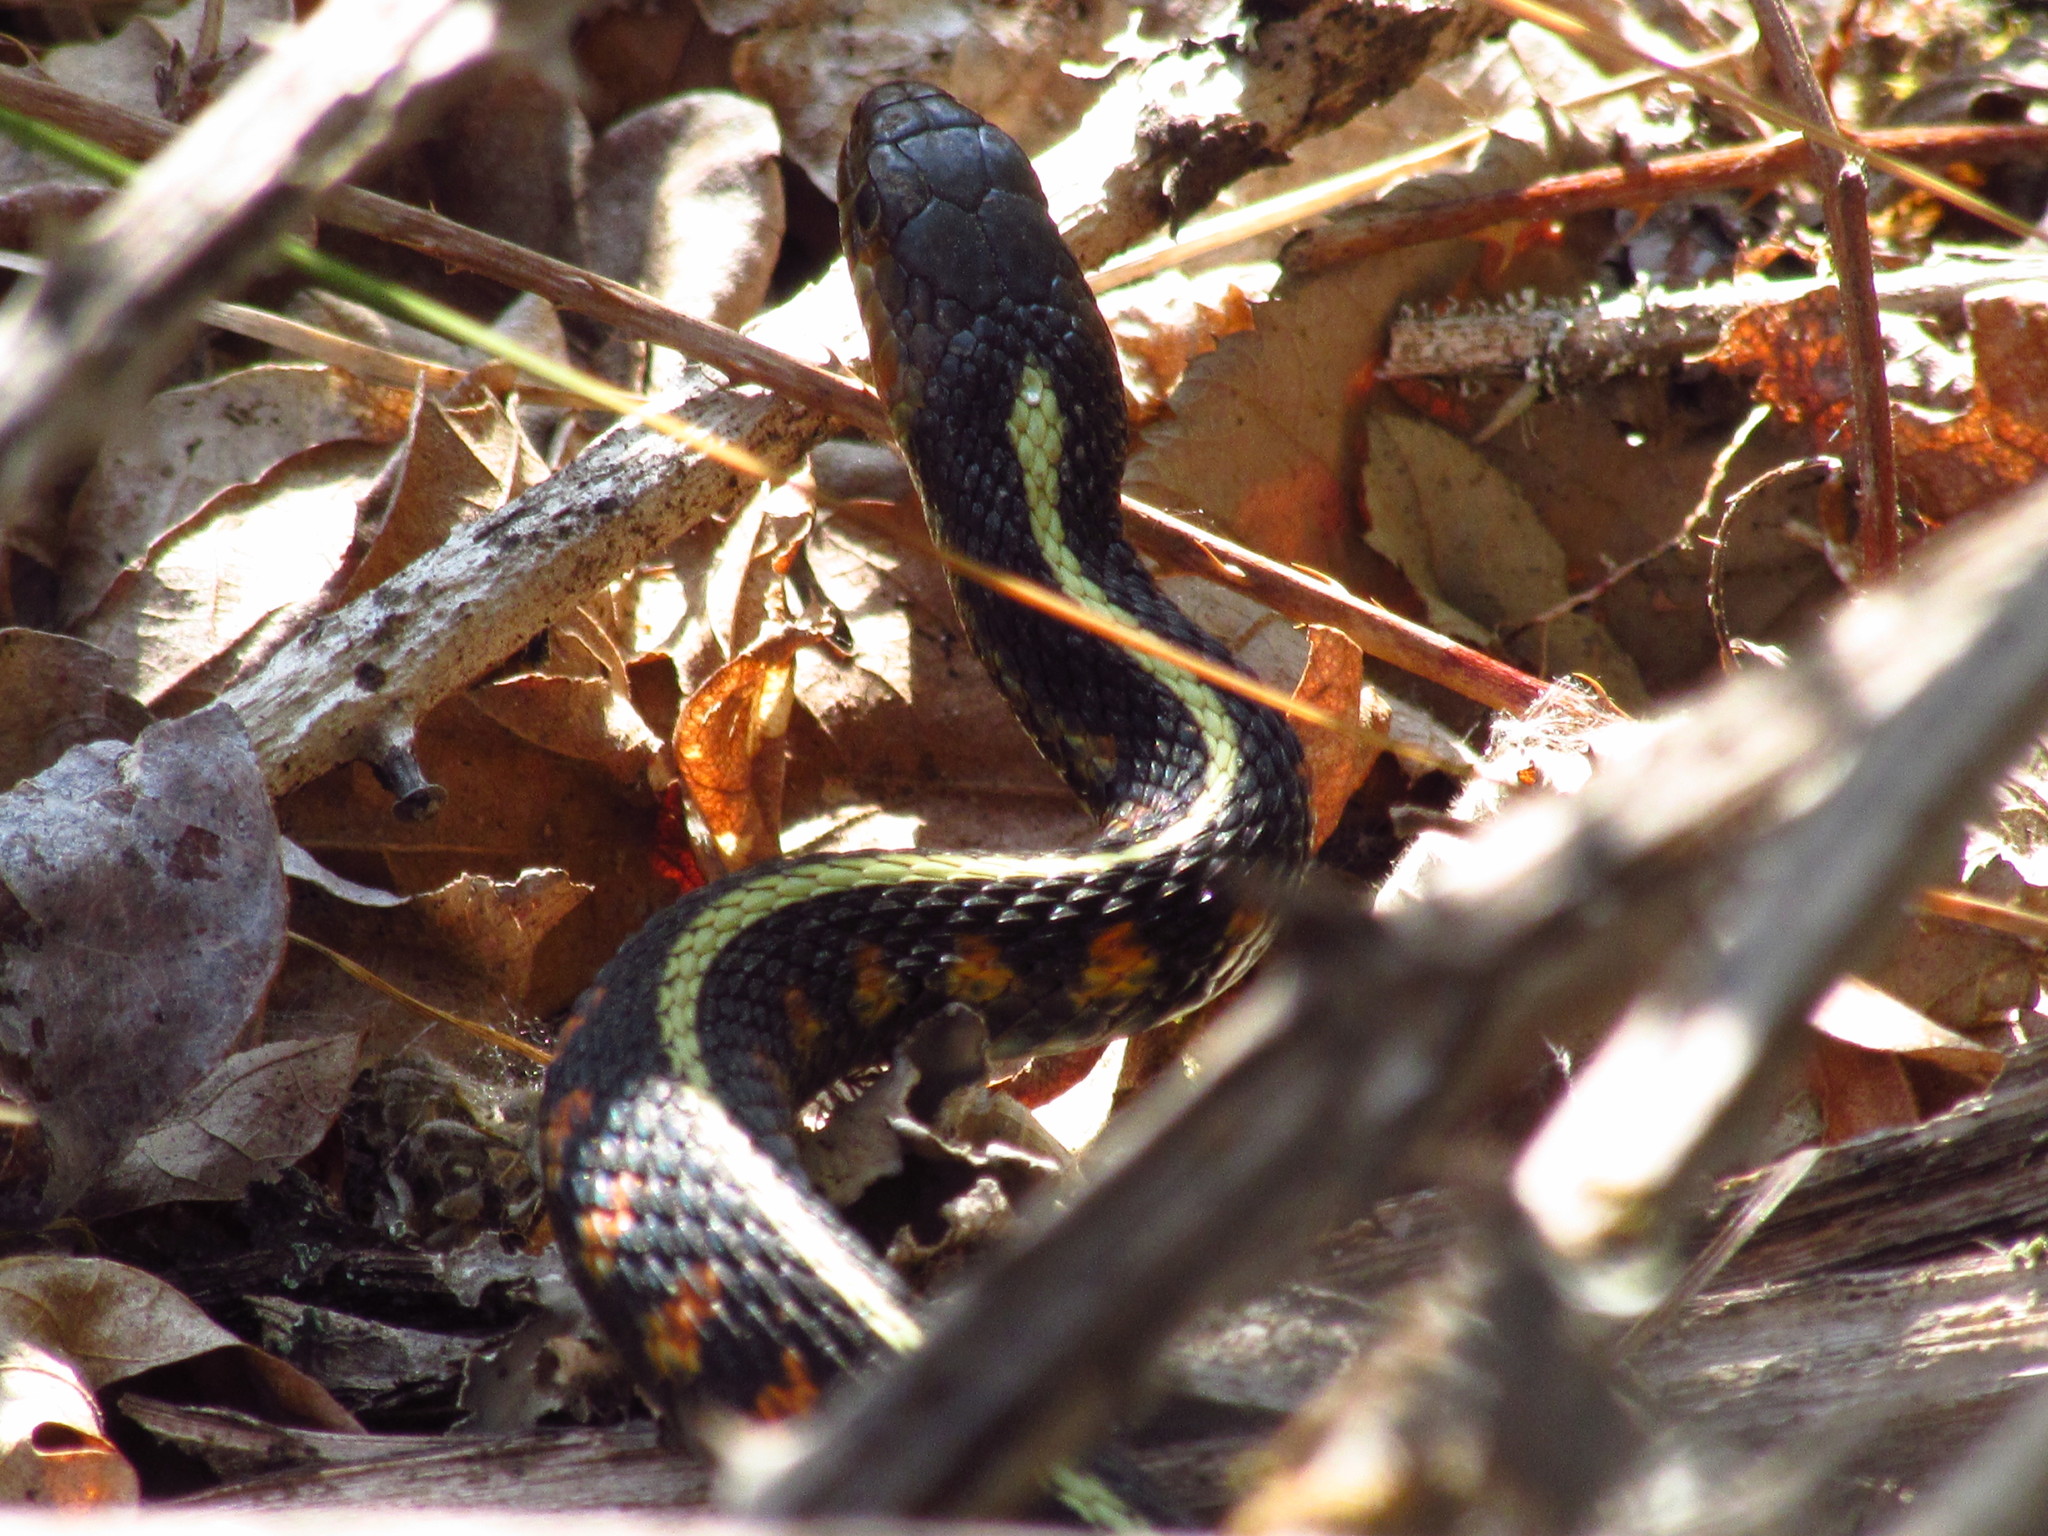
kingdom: Animalia
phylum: Chordata
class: Squamata
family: Colubridae
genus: Thamnophis
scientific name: Thamnophis sirtalis
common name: Common garter snake
